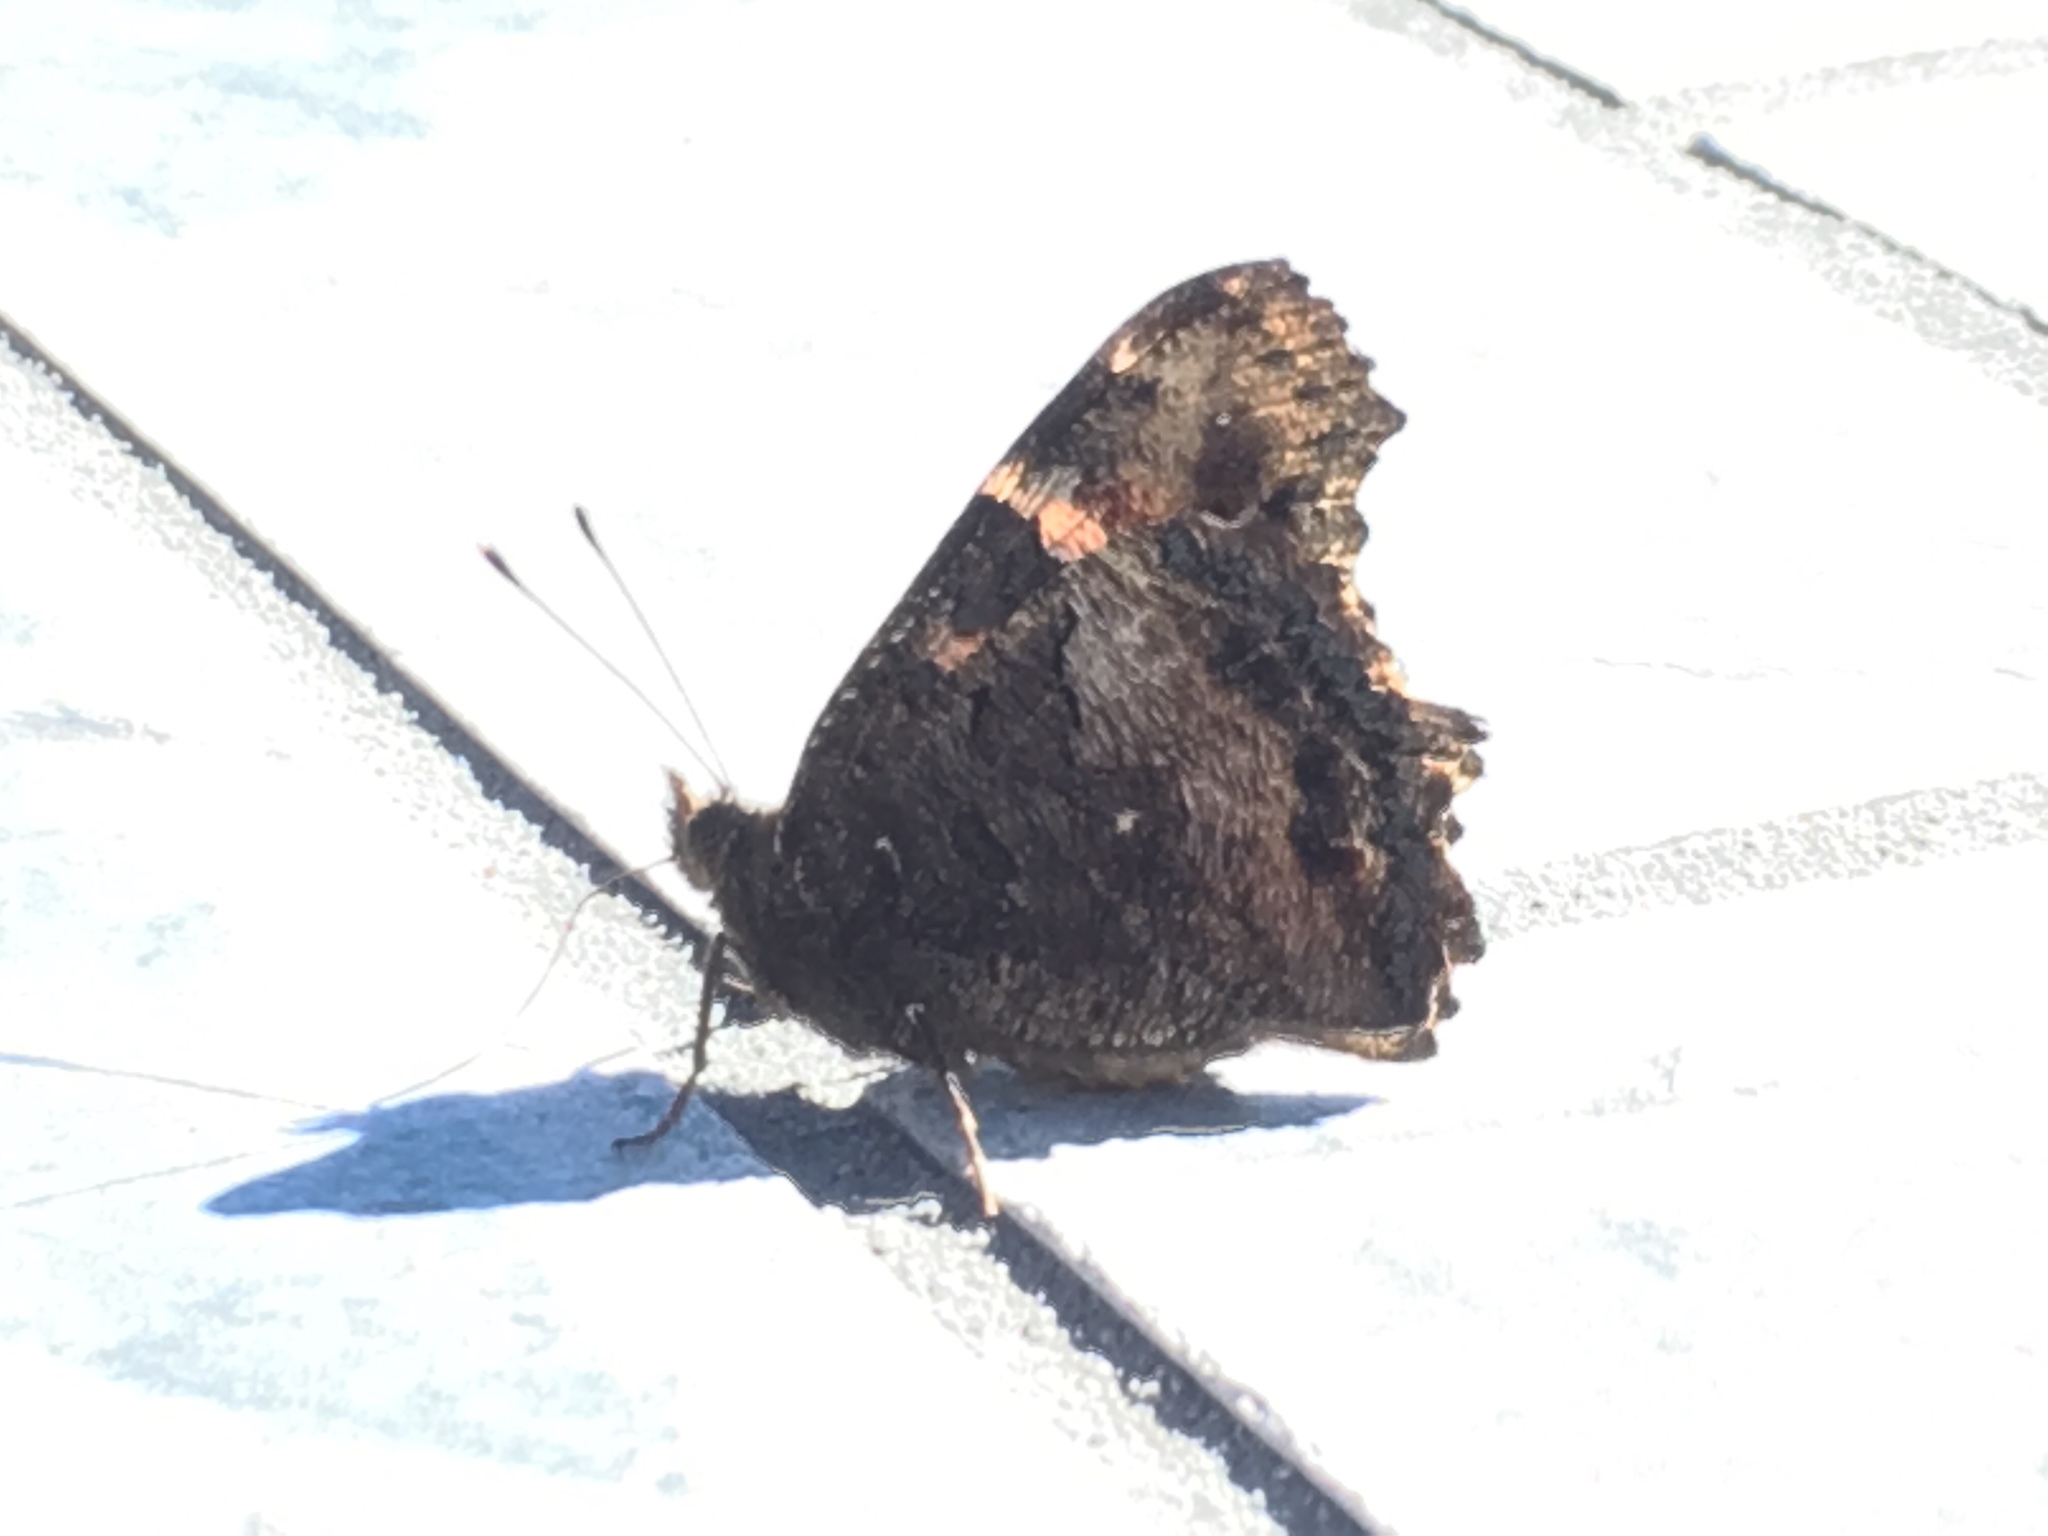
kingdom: Animalia
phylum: Arthropoda
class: Insecta
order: Lepidoptera
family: Nymphalidae
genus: Nymphalis
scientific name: Nymphalis californica
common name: California tortoiseshell
